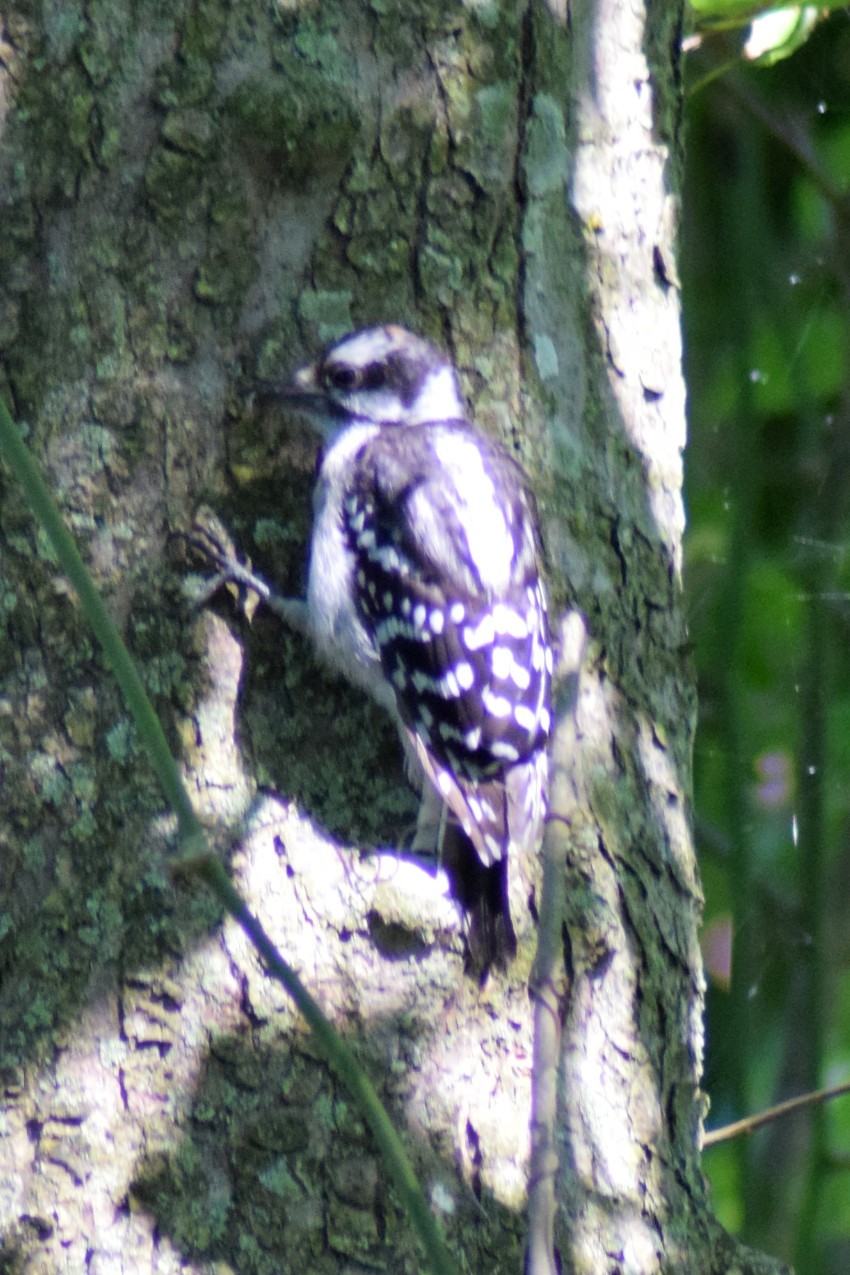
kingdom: Animalia
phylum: Chordata
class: Aves
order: Piciformes
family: Picidae
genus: Dryobates
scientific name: Dryobates pubescens
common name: Downy woodpecker
